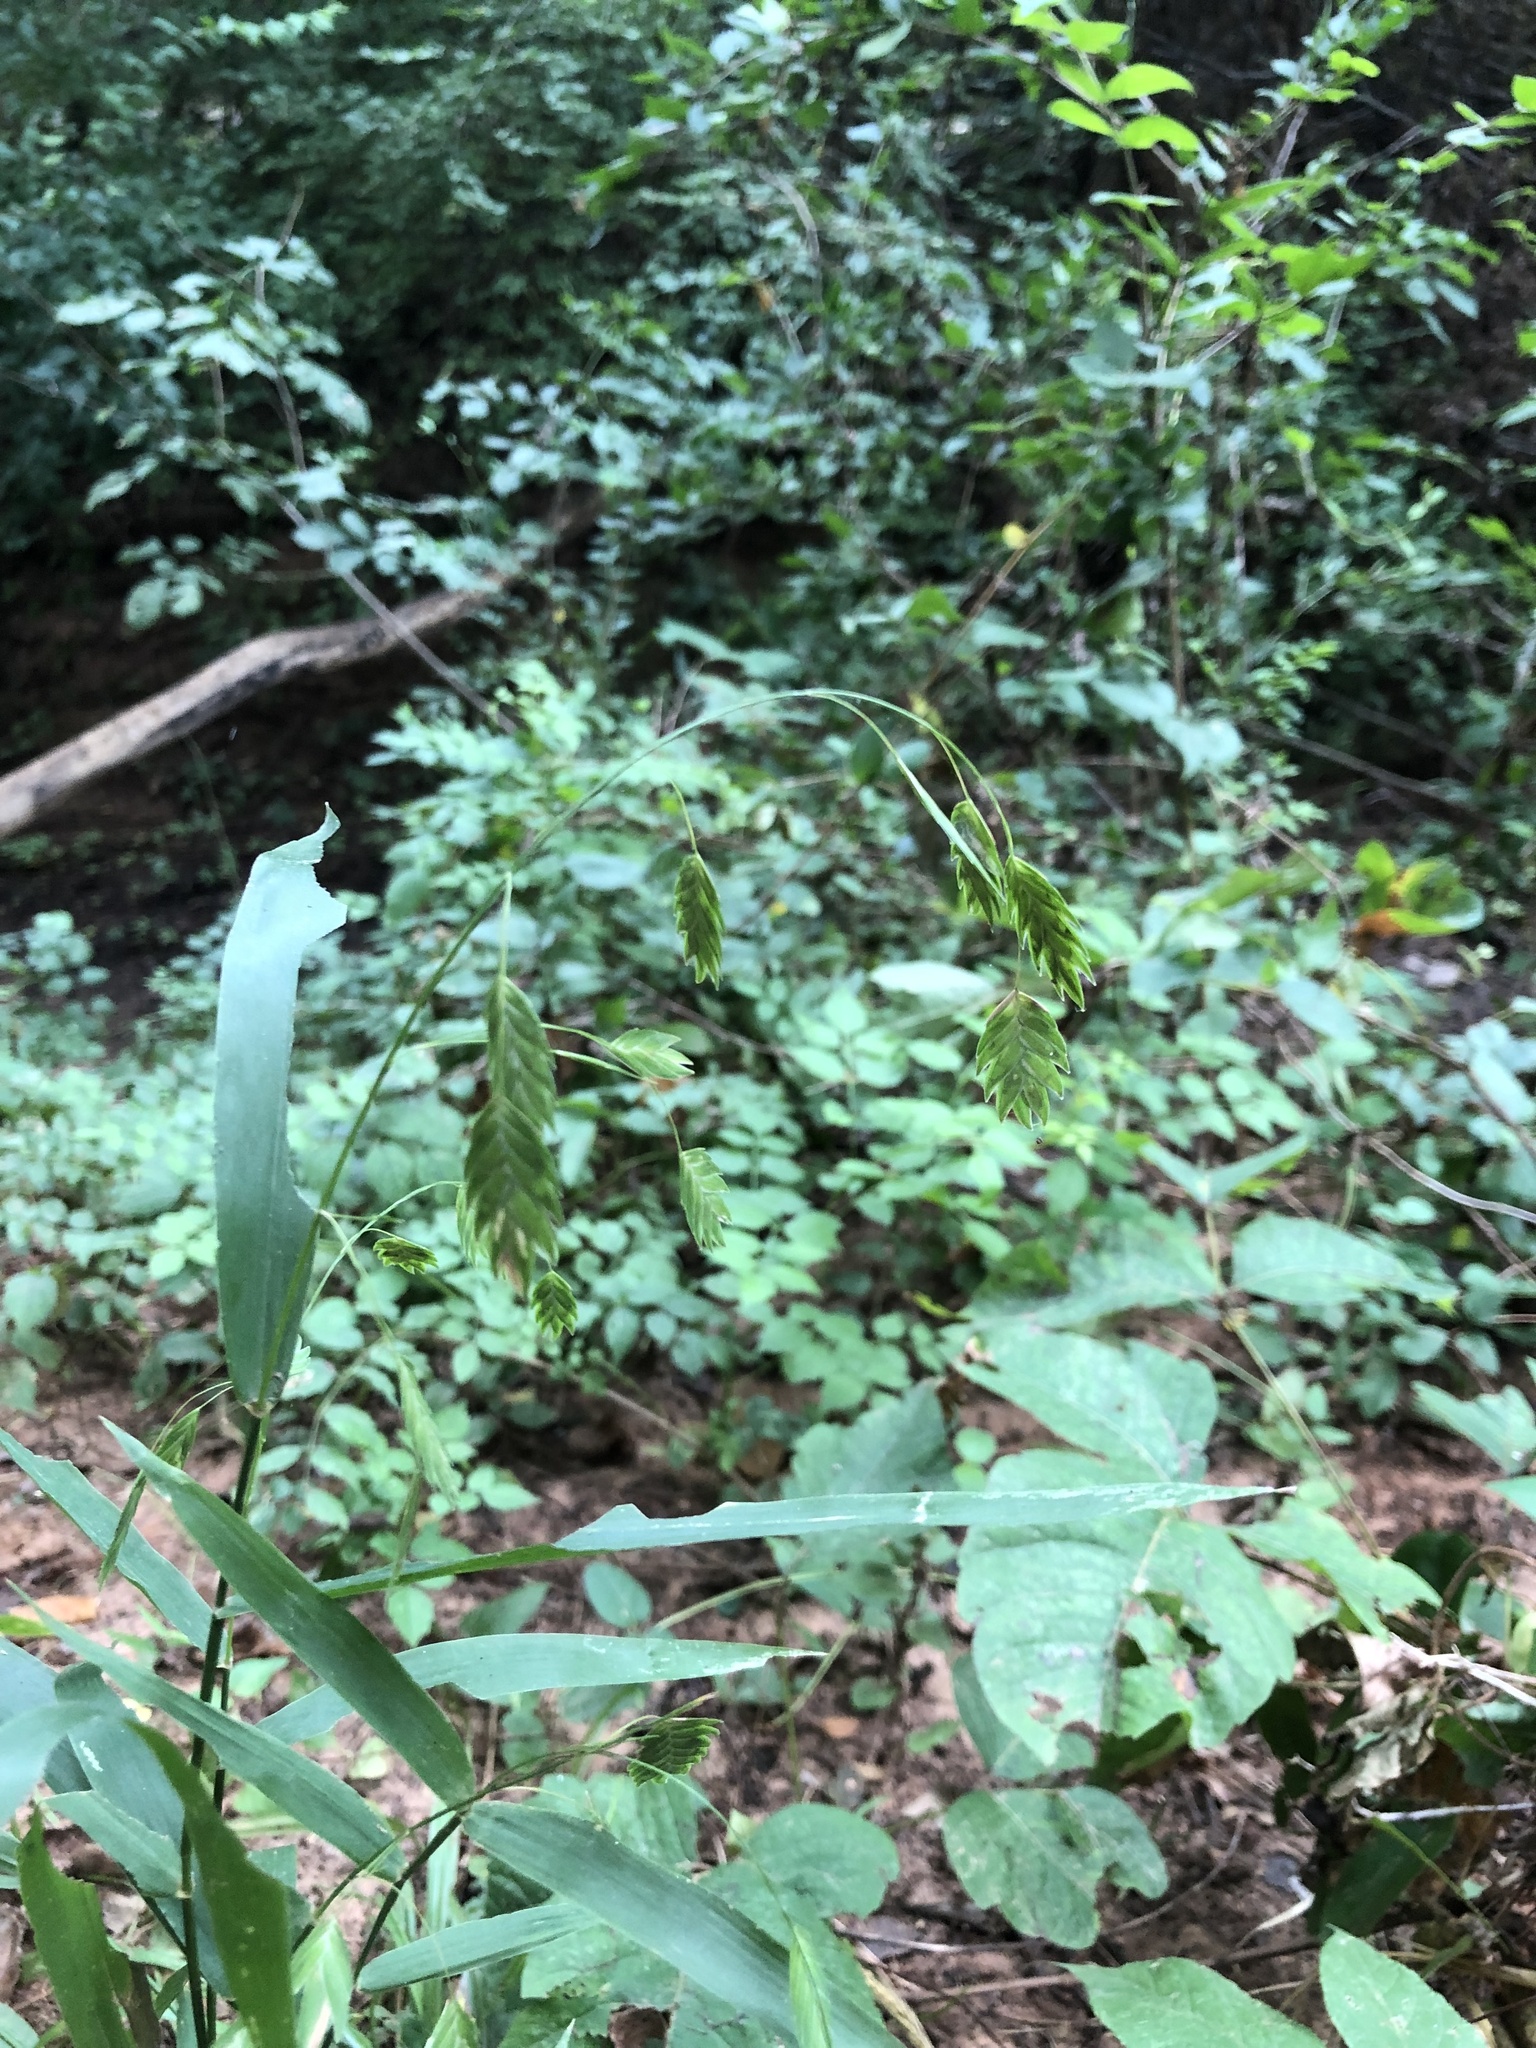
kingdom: Plantae
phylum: Tracheophyta
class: Liliopsida
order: Poales
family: Poaceae
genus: Chasmanthium
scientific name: Chasmanthium latifolium
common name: Broad-leaved chasmanthium
